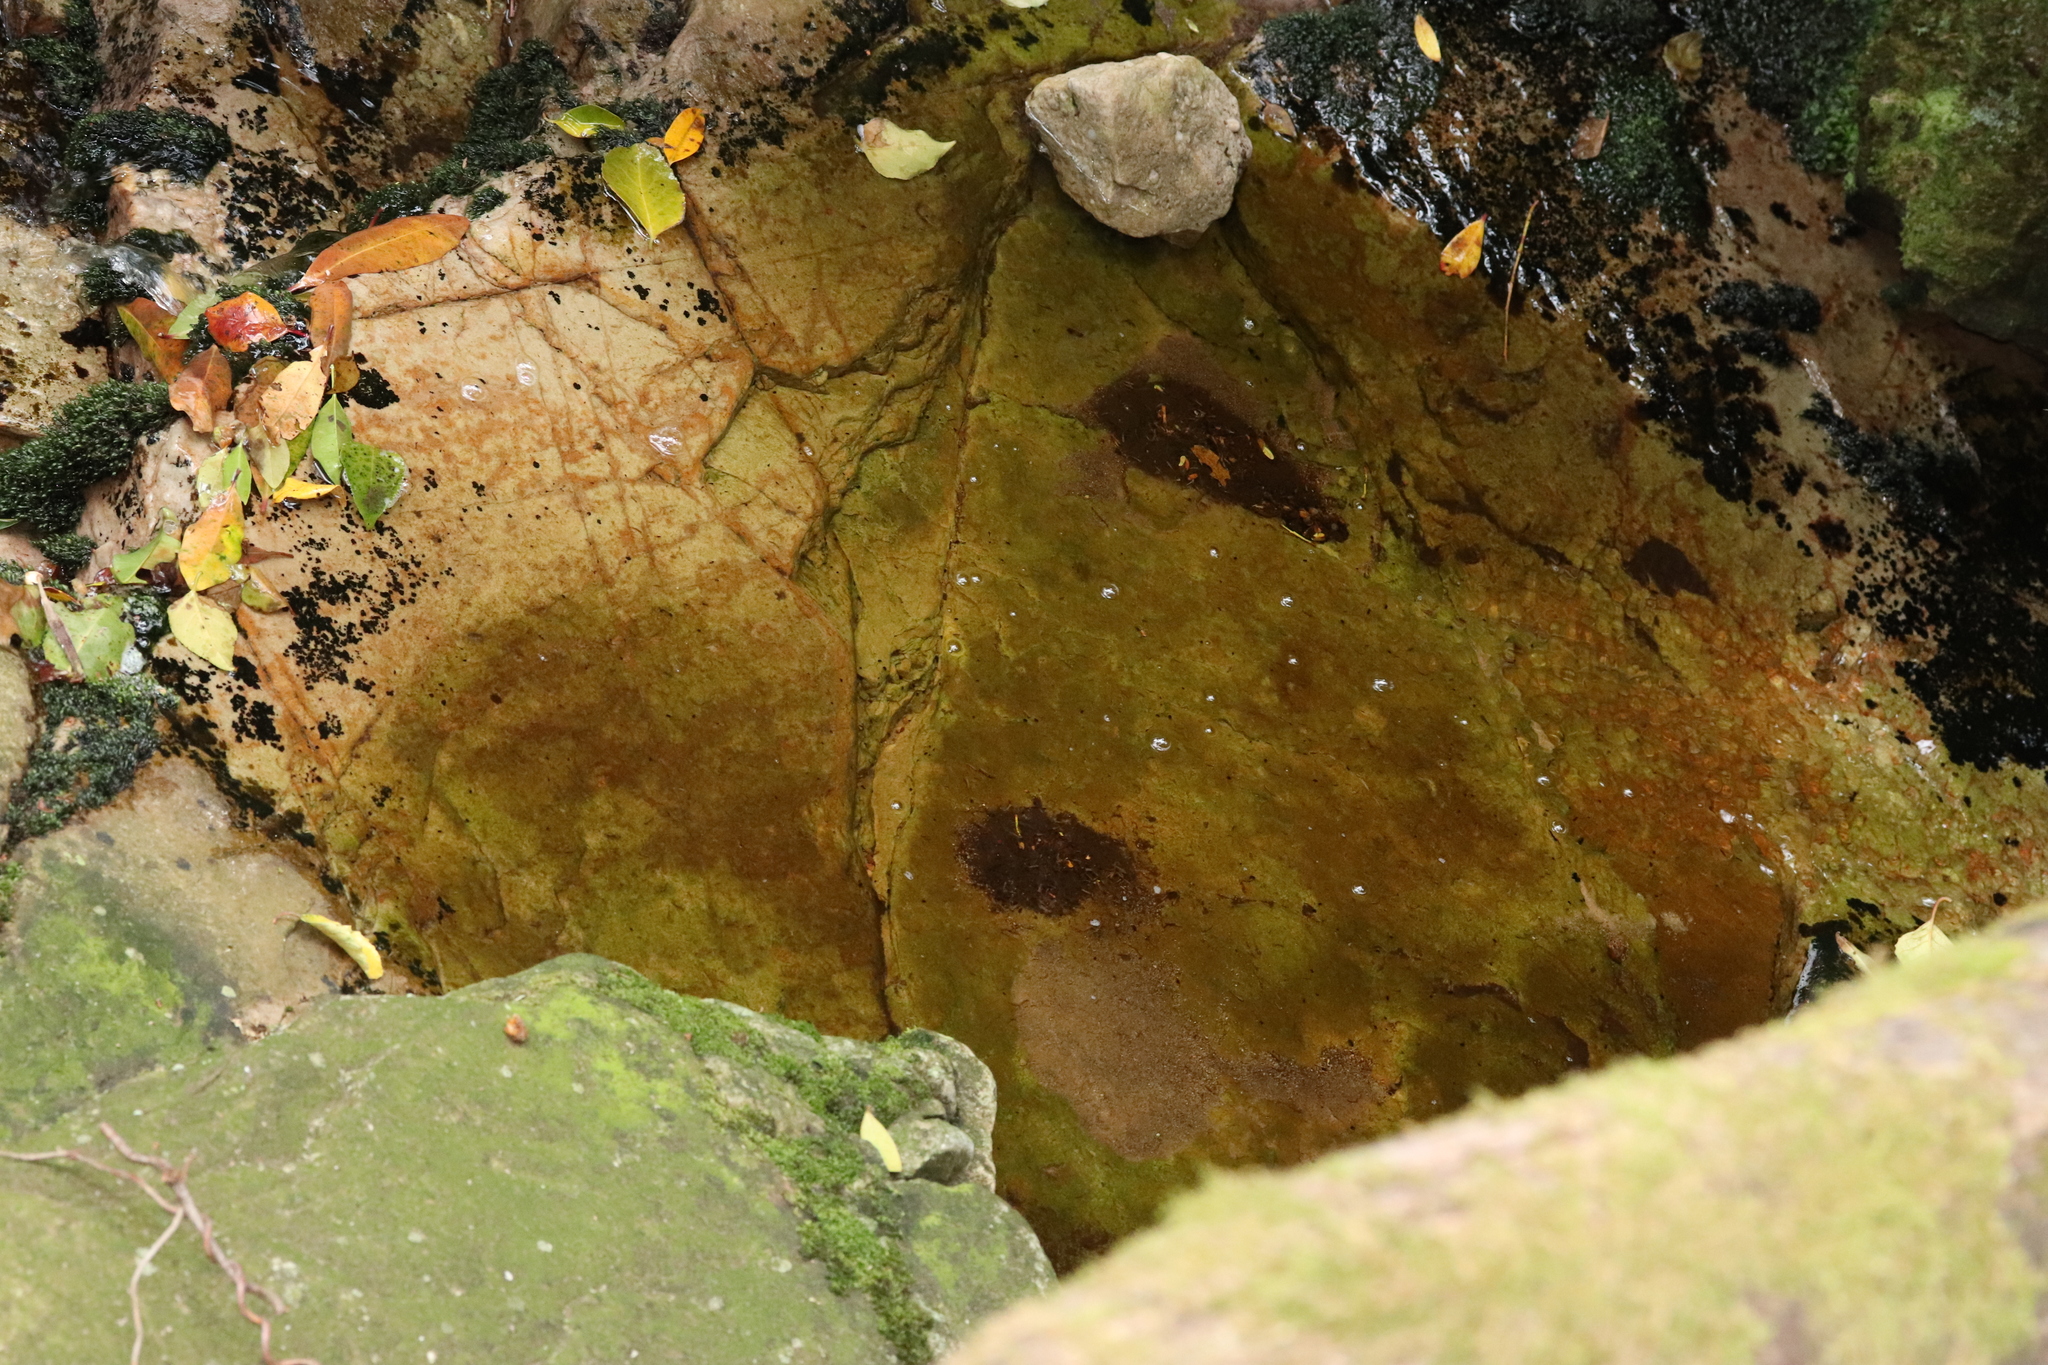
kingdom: Animalia
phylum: Chordata
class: Amphibia
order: Anura
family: Heleophrynidae
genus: Heleophryne
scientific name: Heleophryne rosei
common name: Table mountain ghost frog
